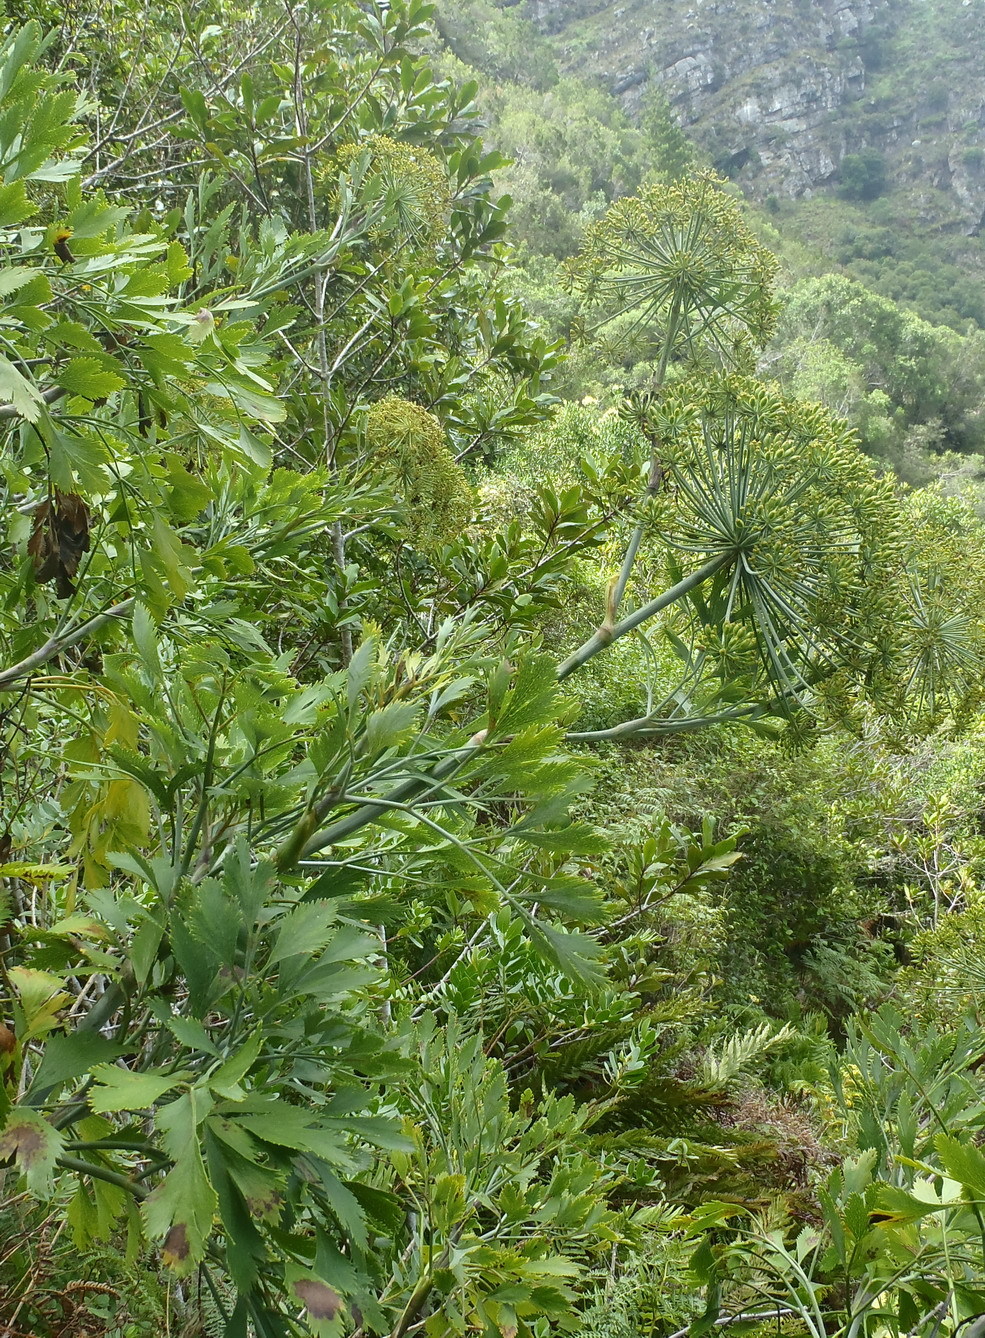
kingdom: Plantae
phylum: Tracheophyta
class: Magnoliopsida
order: Apiales
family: Apiaceae
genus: Notobubon
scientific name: Notobubon galbanum
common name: Blisterbush
